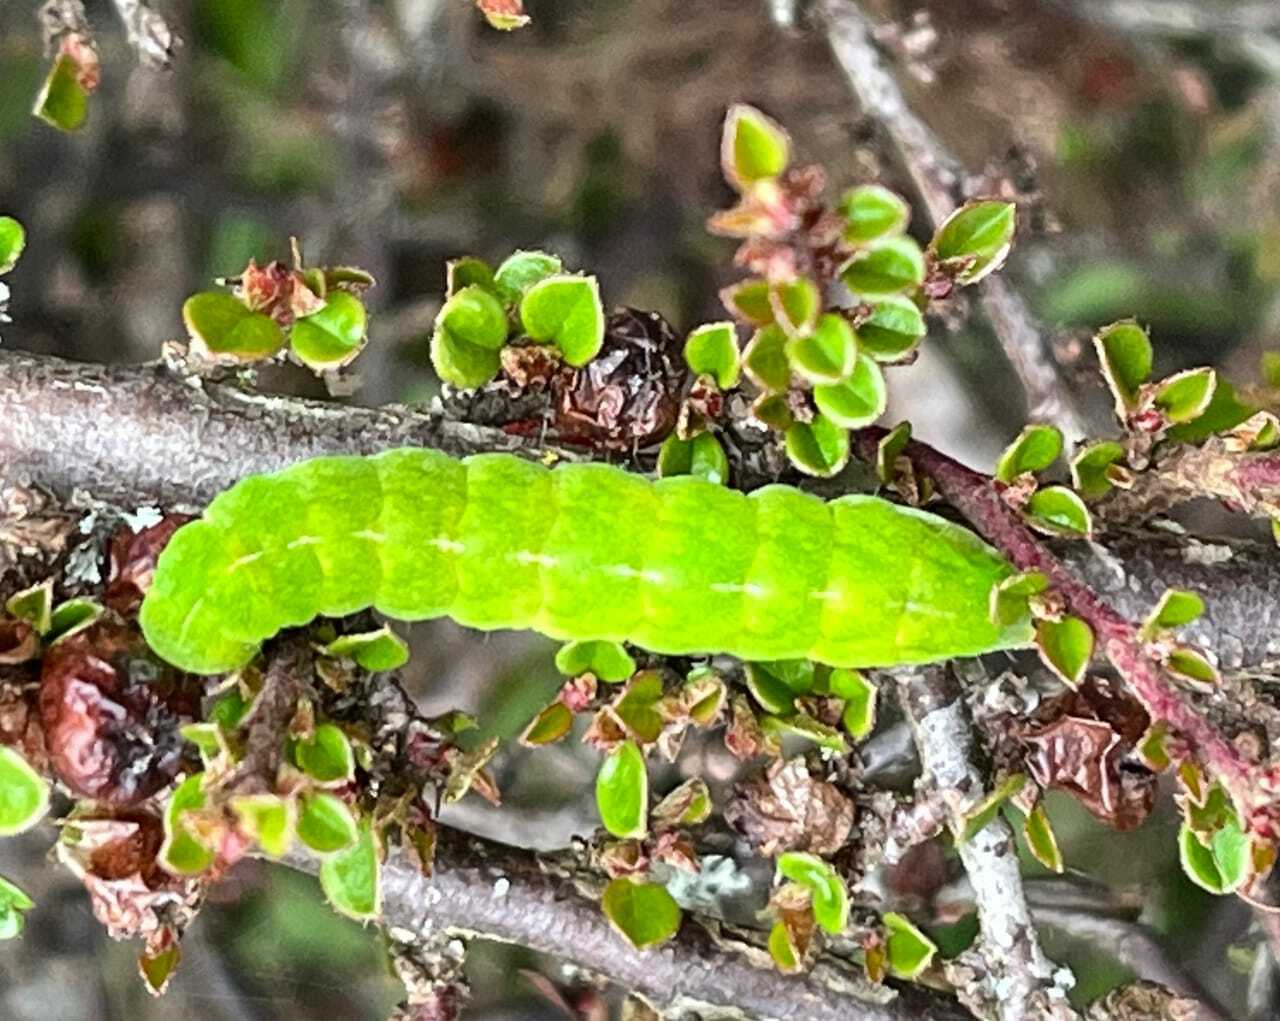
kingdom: Animalia
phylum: Arthropoda
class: Insecta
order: Lepidoptera
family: Noctuidae
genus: Phlogophora
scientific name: Phlogophora meticulosa
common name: Angle shades
